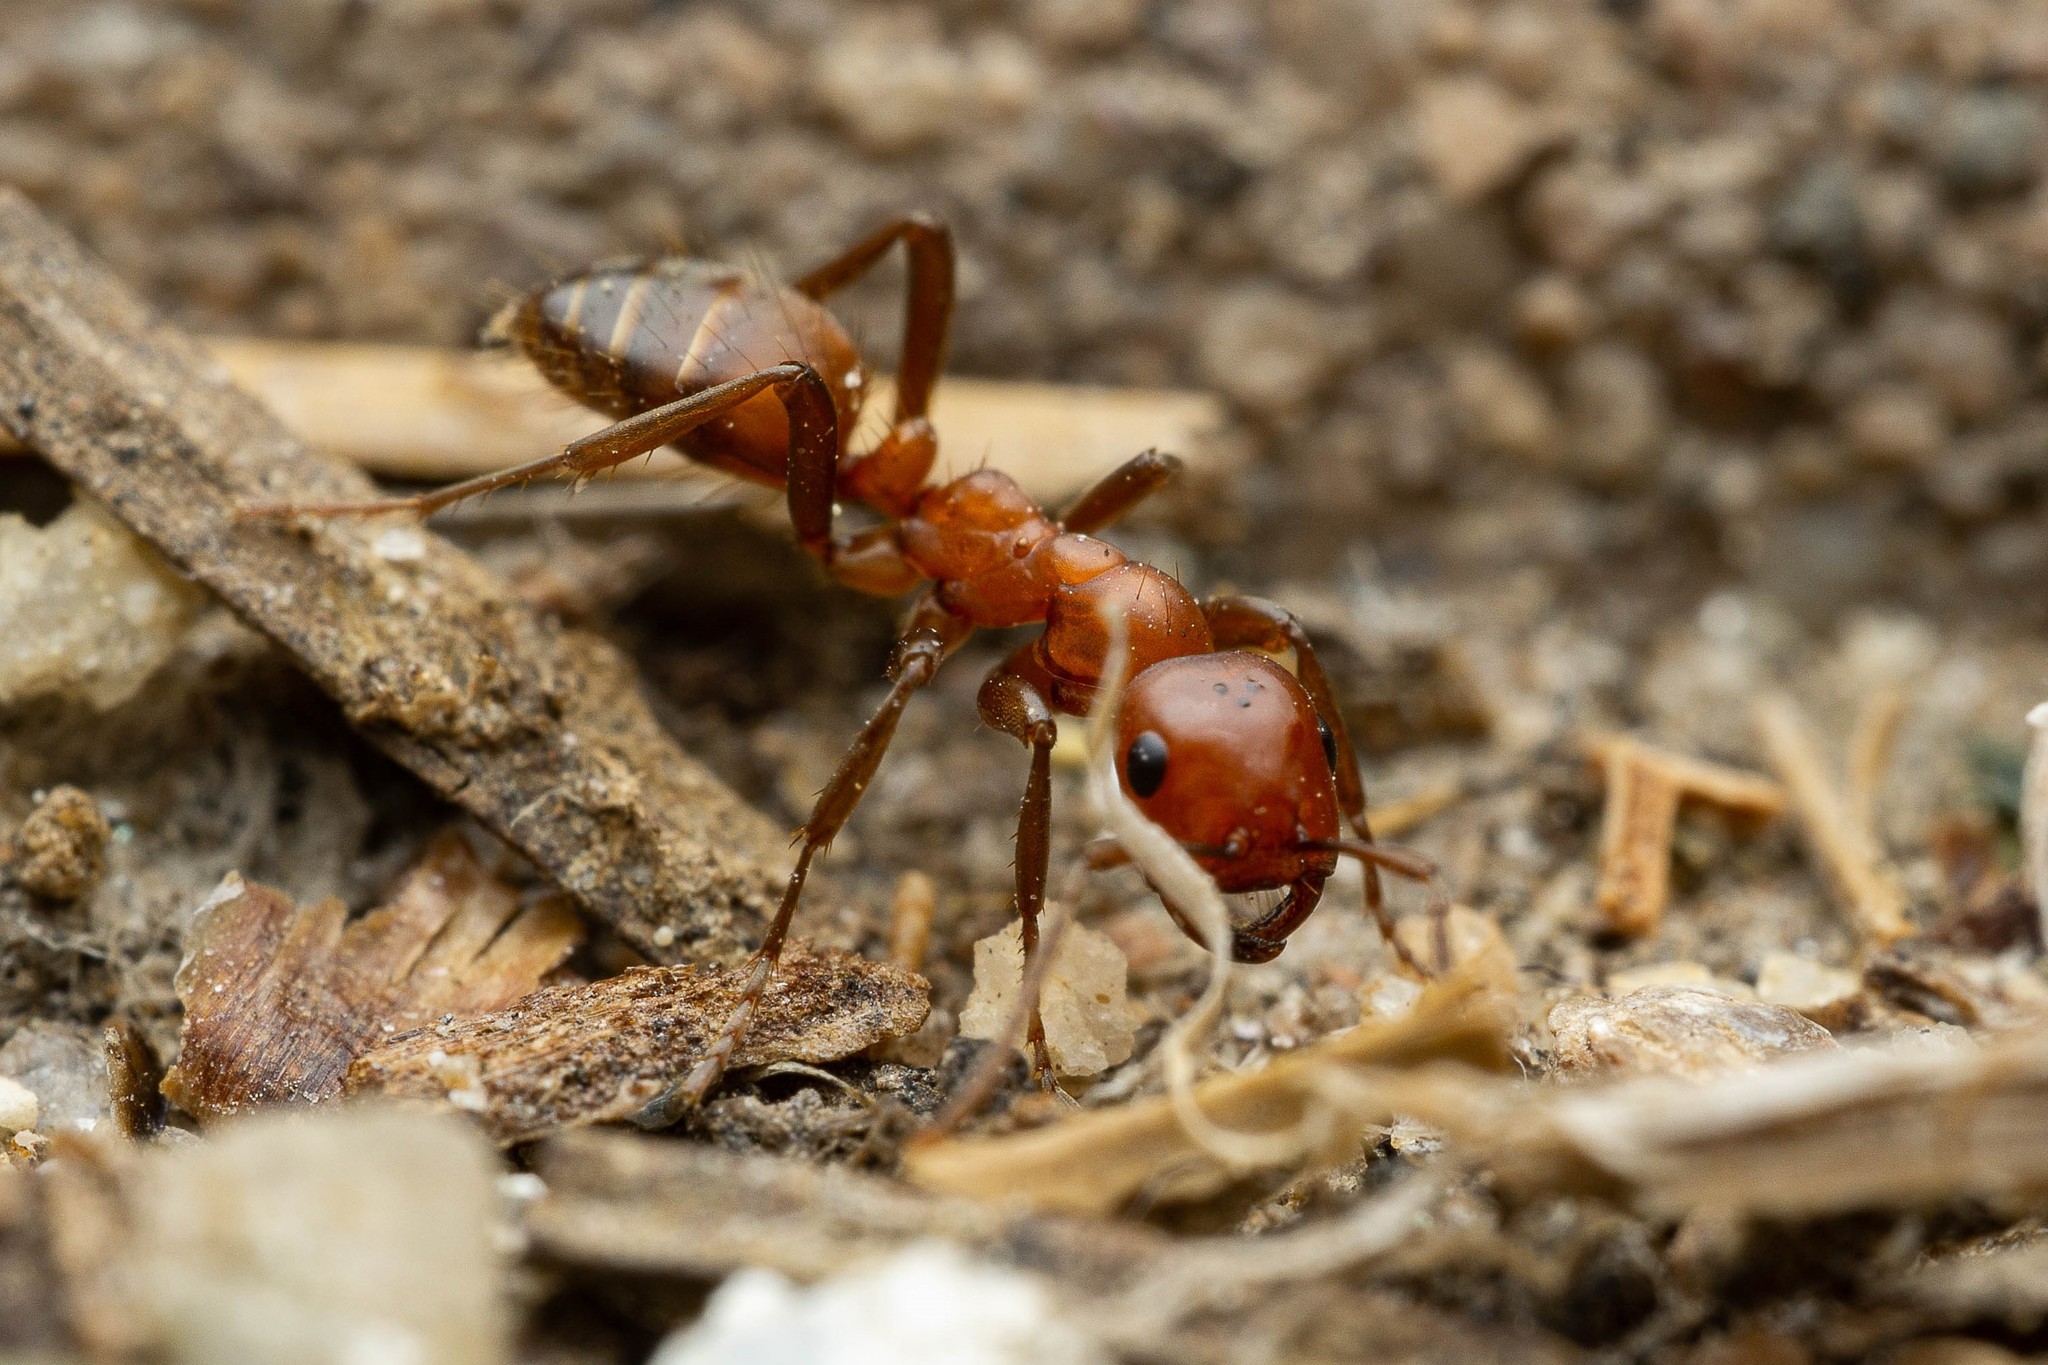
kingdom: Animalia
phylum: Arthropoda
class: Insecta
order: Hymenoptera
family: Formicidae
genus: Polyergus
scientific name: Polyergus mexicanus
